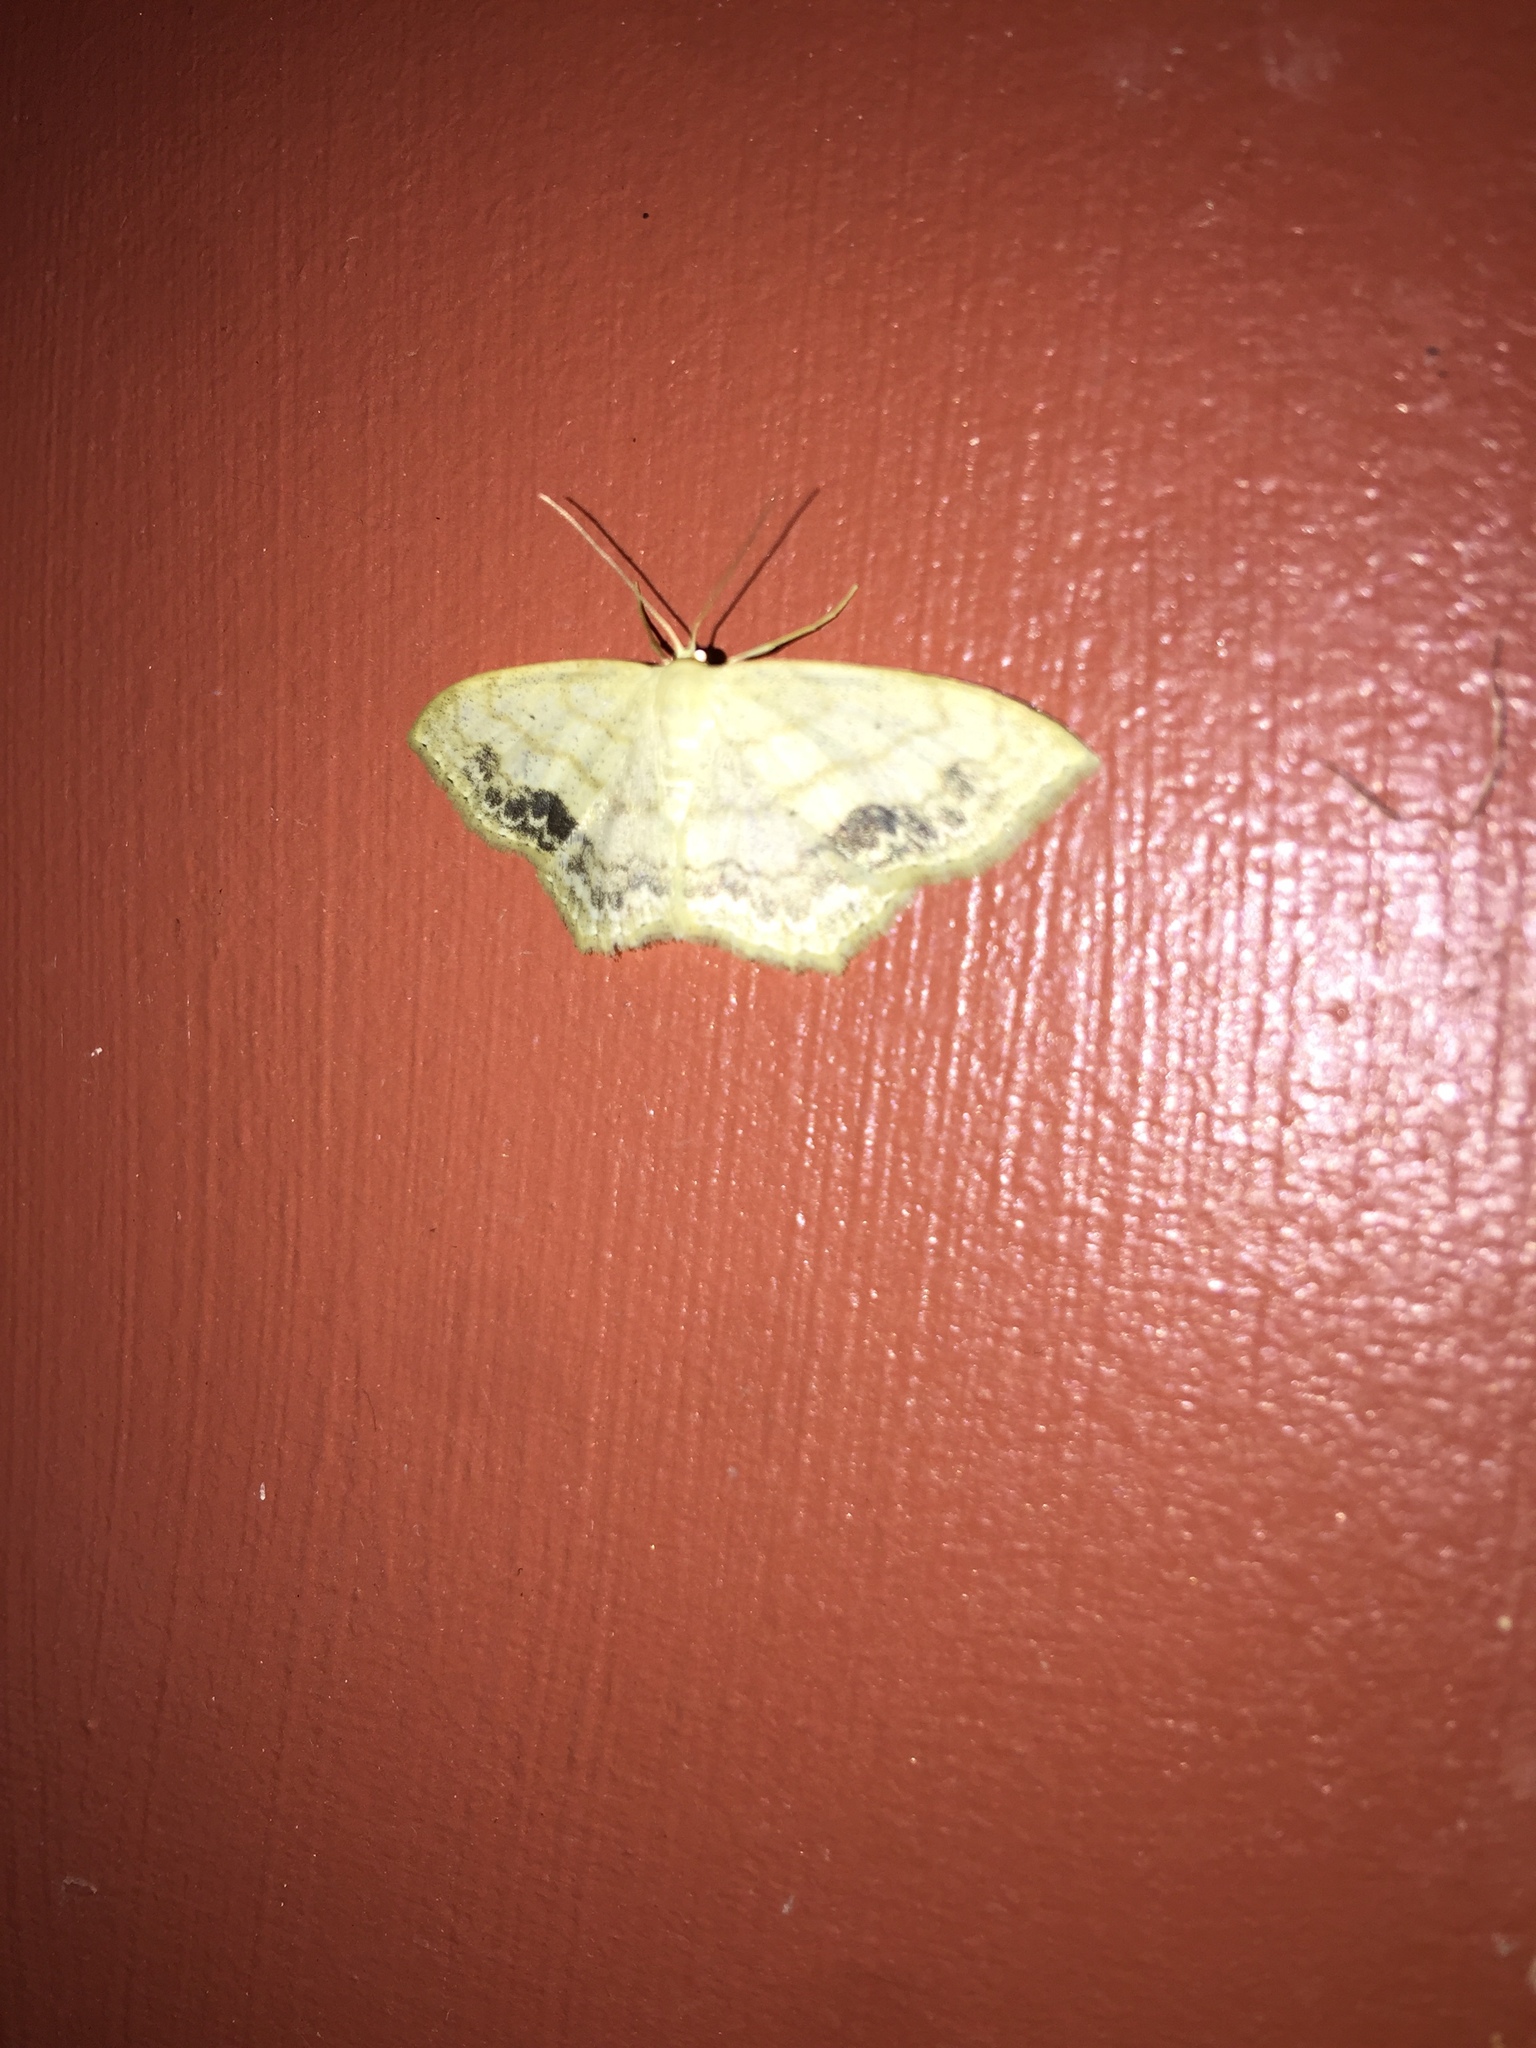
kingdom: Animalia
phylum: Arthropoda
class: Insecta
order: Lepidoptera
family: Geometridae
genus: Scopula
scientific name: Scopula limboundata
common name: Large lace border
